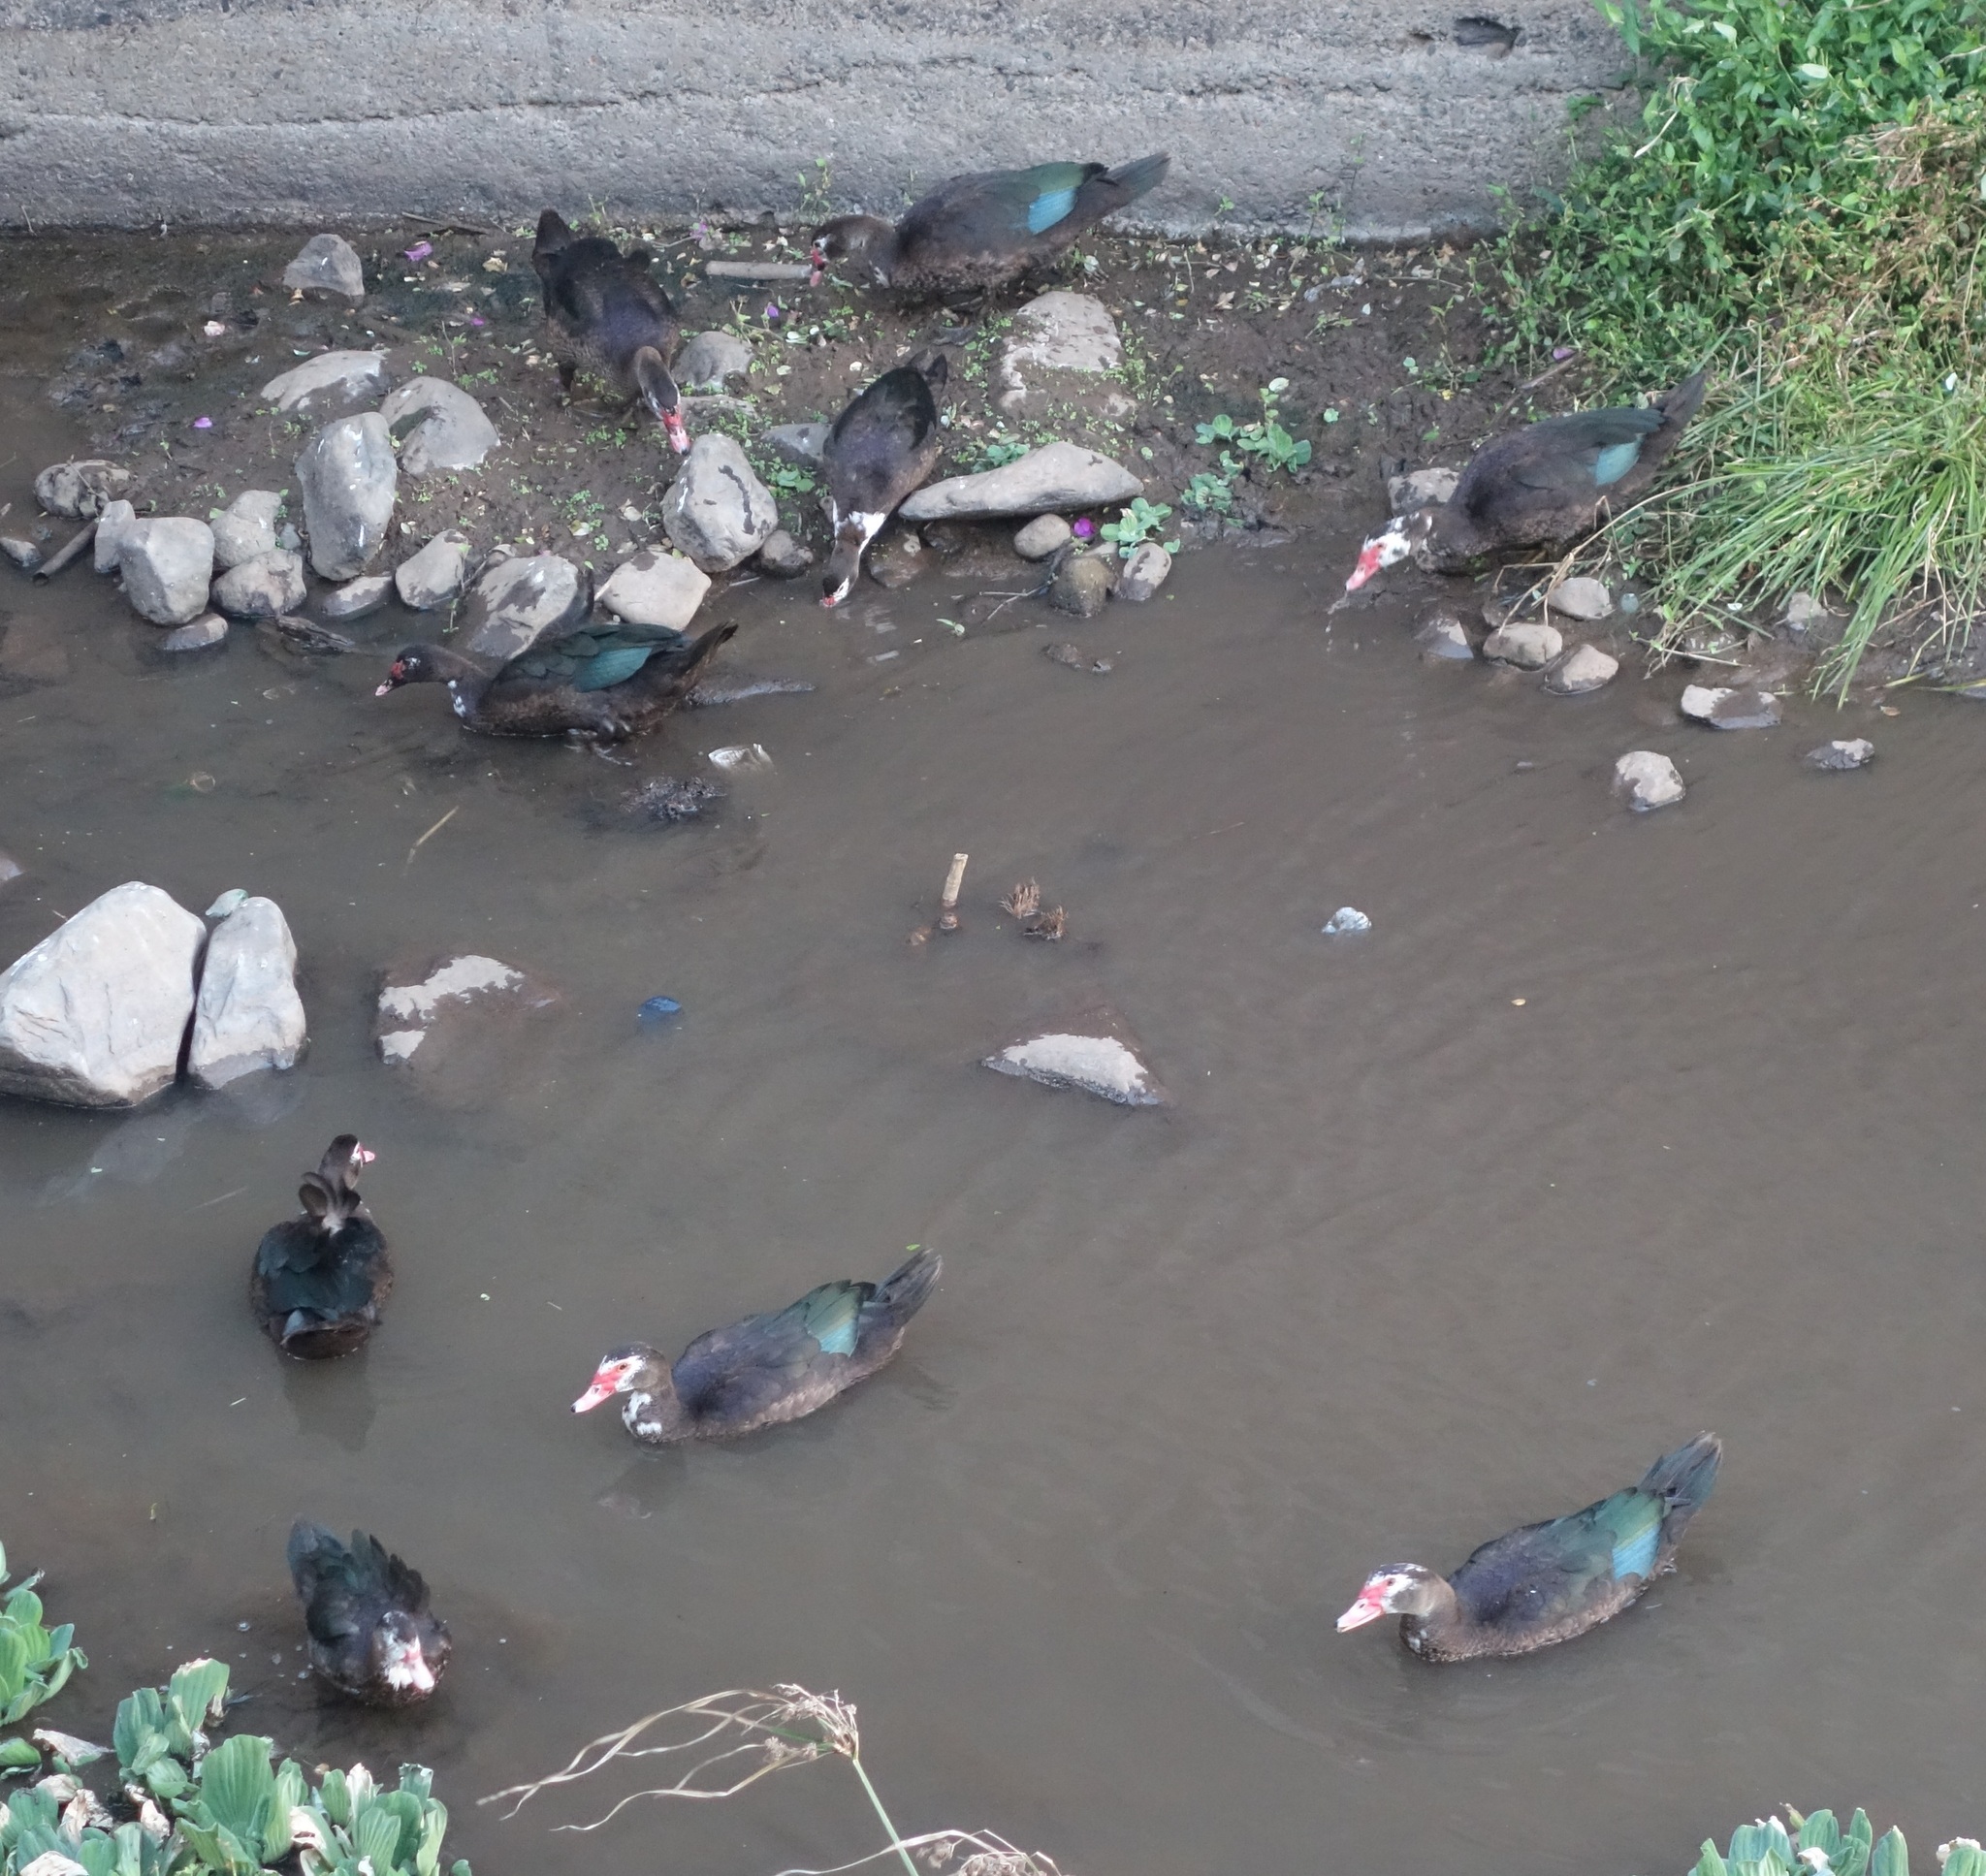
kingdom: Animalia
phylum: Chordata
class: Aves
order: Anseriformes
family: Anatidae
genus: Cairina
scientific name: Cairina moschata
